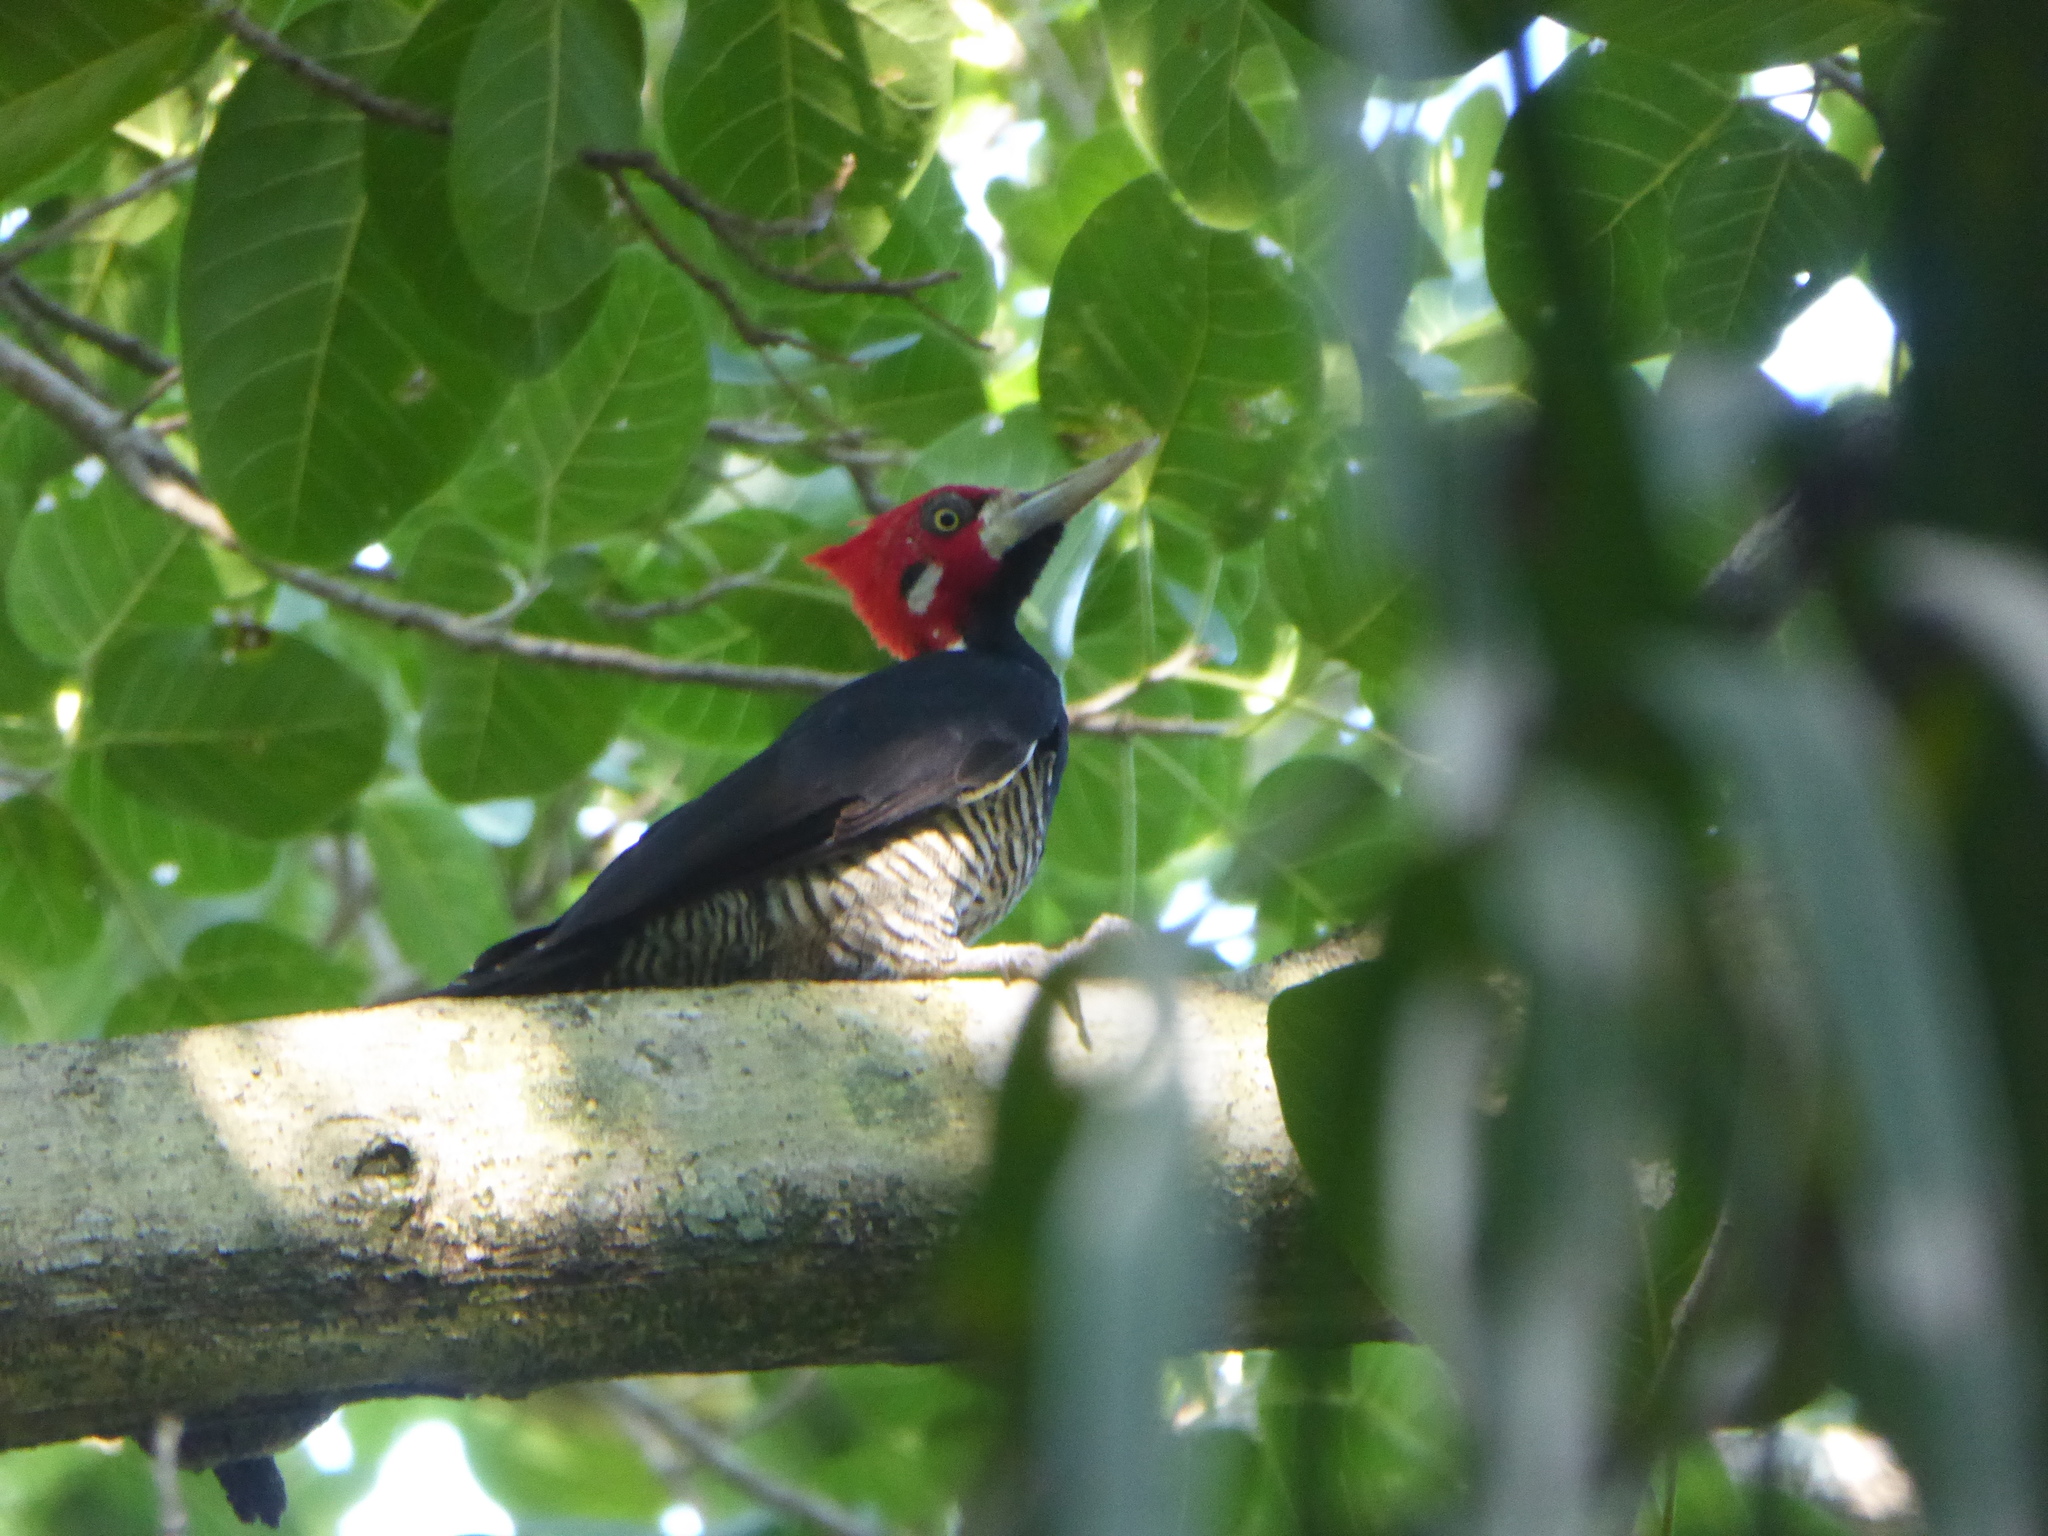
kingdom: Animalia
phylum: Chordata
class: Aves
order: Piciformes
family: Picidae
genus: Campephilus
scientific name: Campephilus melanoleucos
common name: Crimson-crested woodpecker
